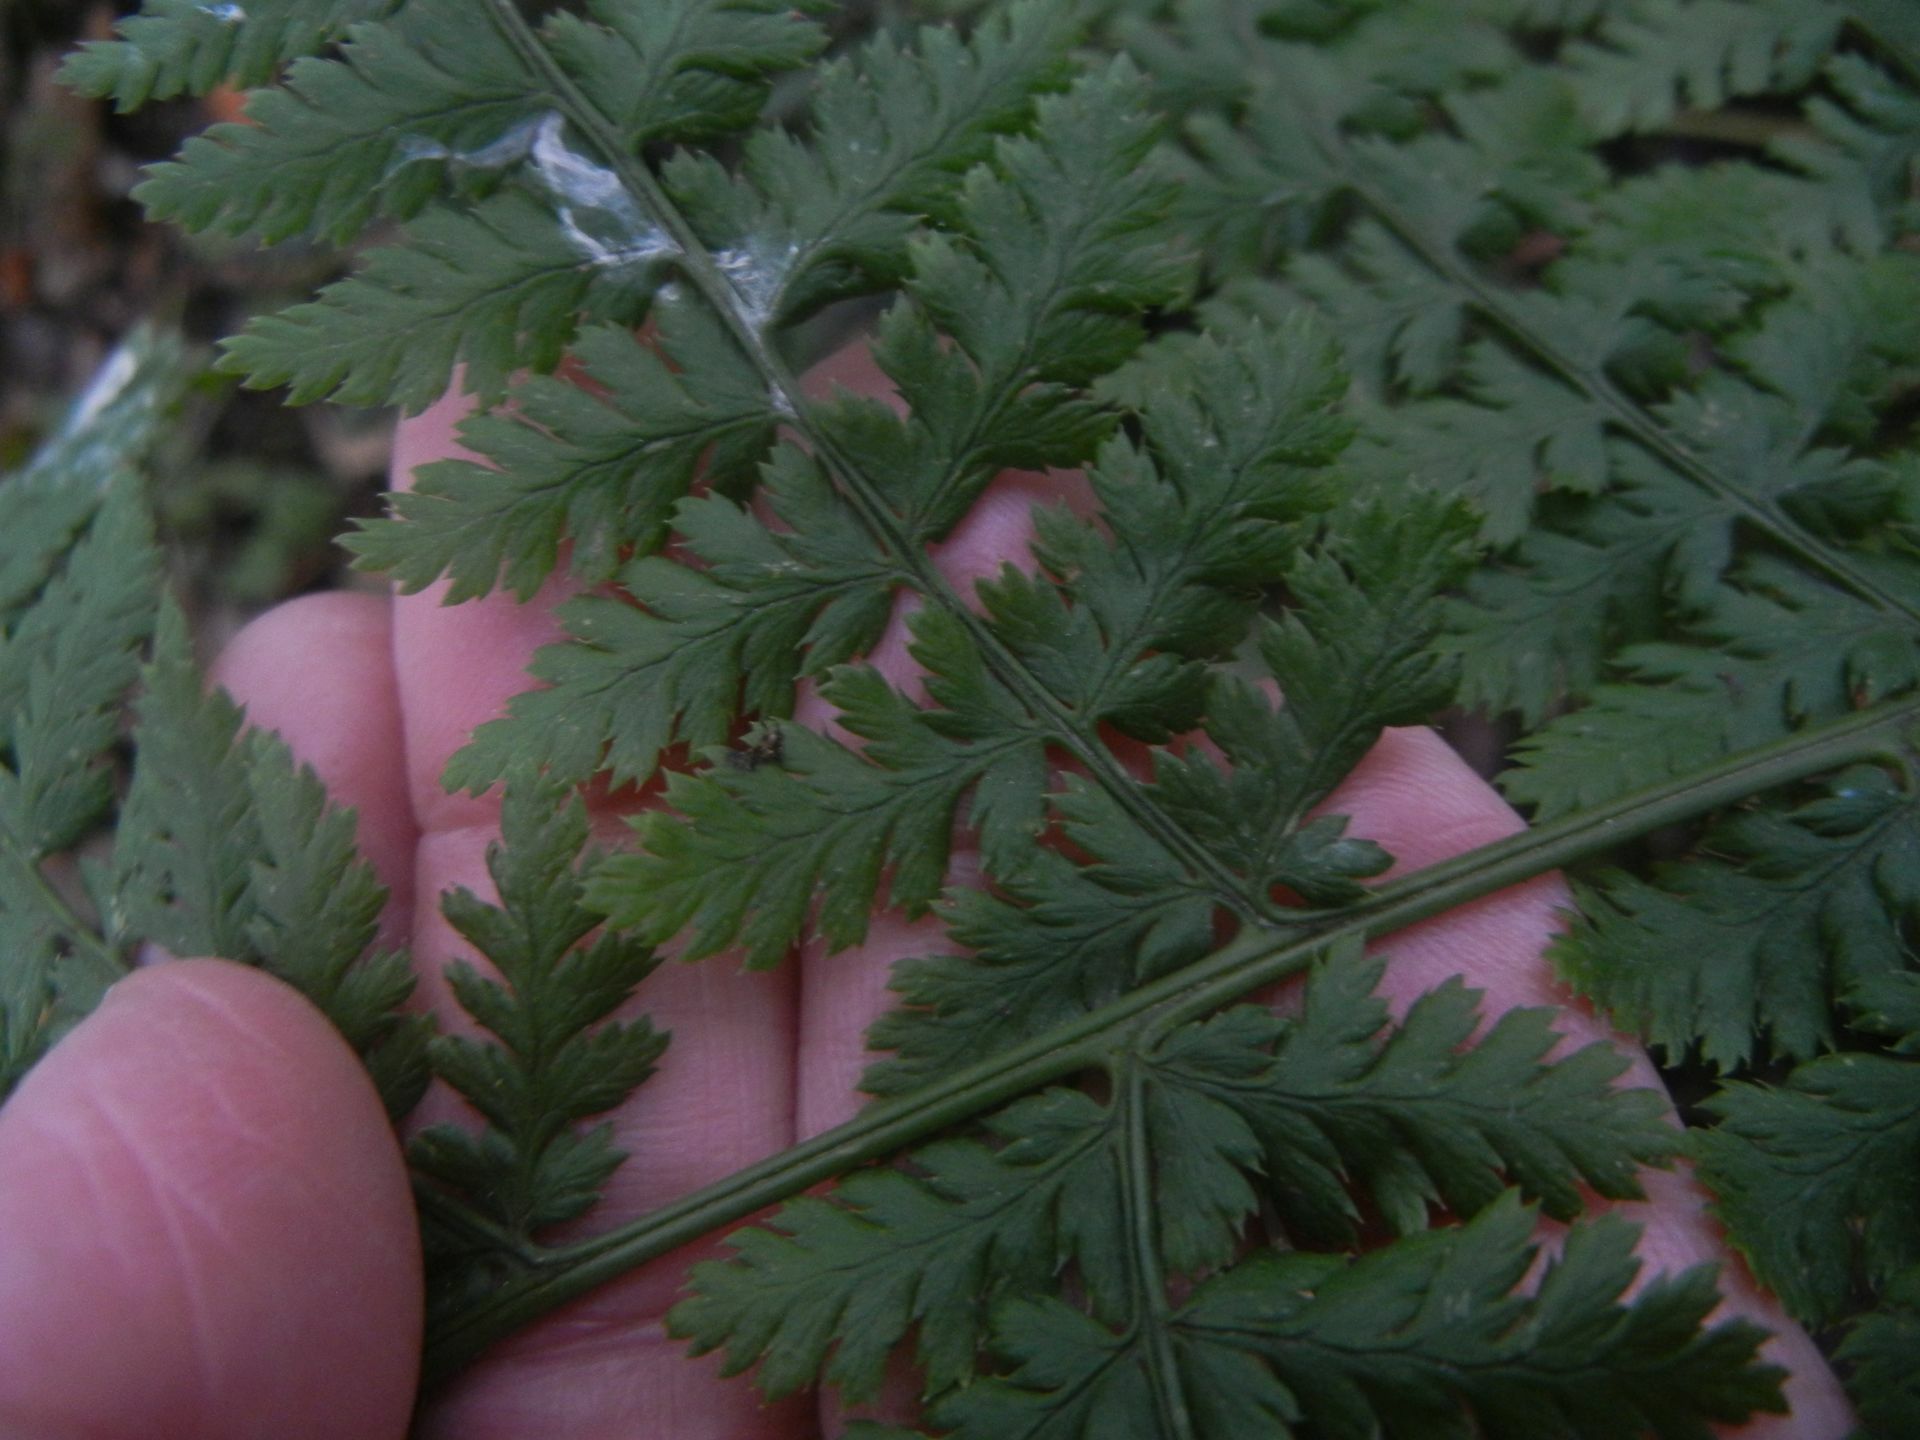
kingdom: Plantae
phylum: Tracheophyta
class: Polypodiopsida
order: Polypodiales
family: Dryopteridaceae
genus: Dryopteris
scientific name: Dryopteris dilatata
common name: Broad buckler-fern
